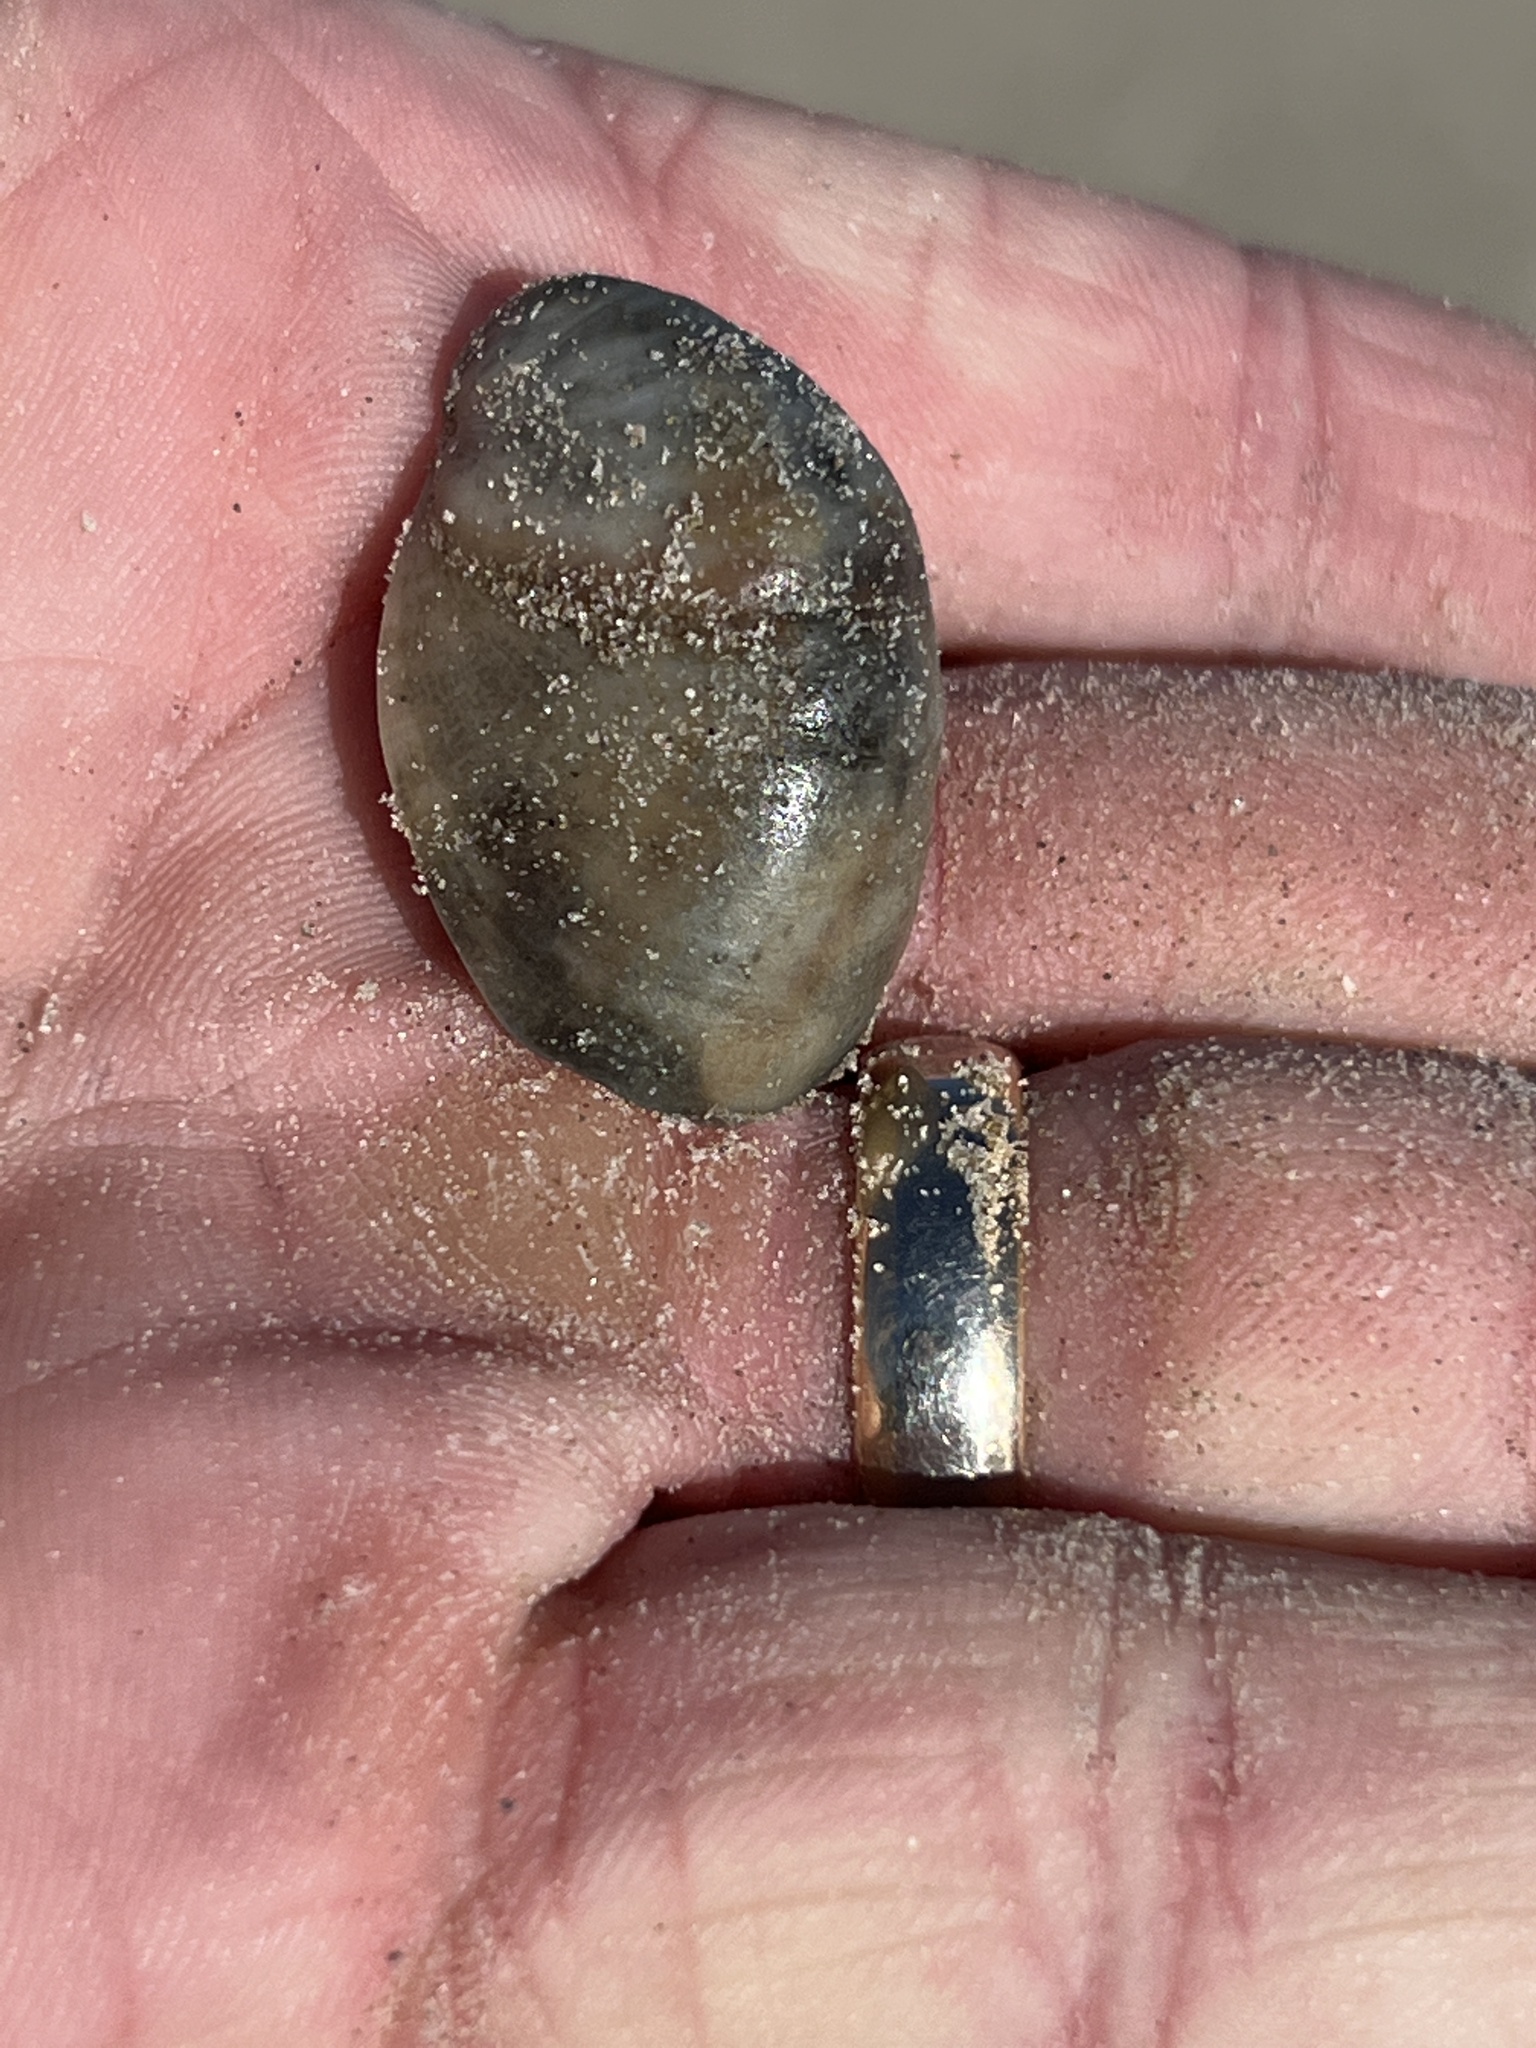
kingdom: Animalia
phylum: Mollusca
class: Gastropoda
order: Littorinimorpha
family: Calyptraeidae
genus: Crepidula
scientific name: Crepidula fornicata
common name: Slipper limpet
